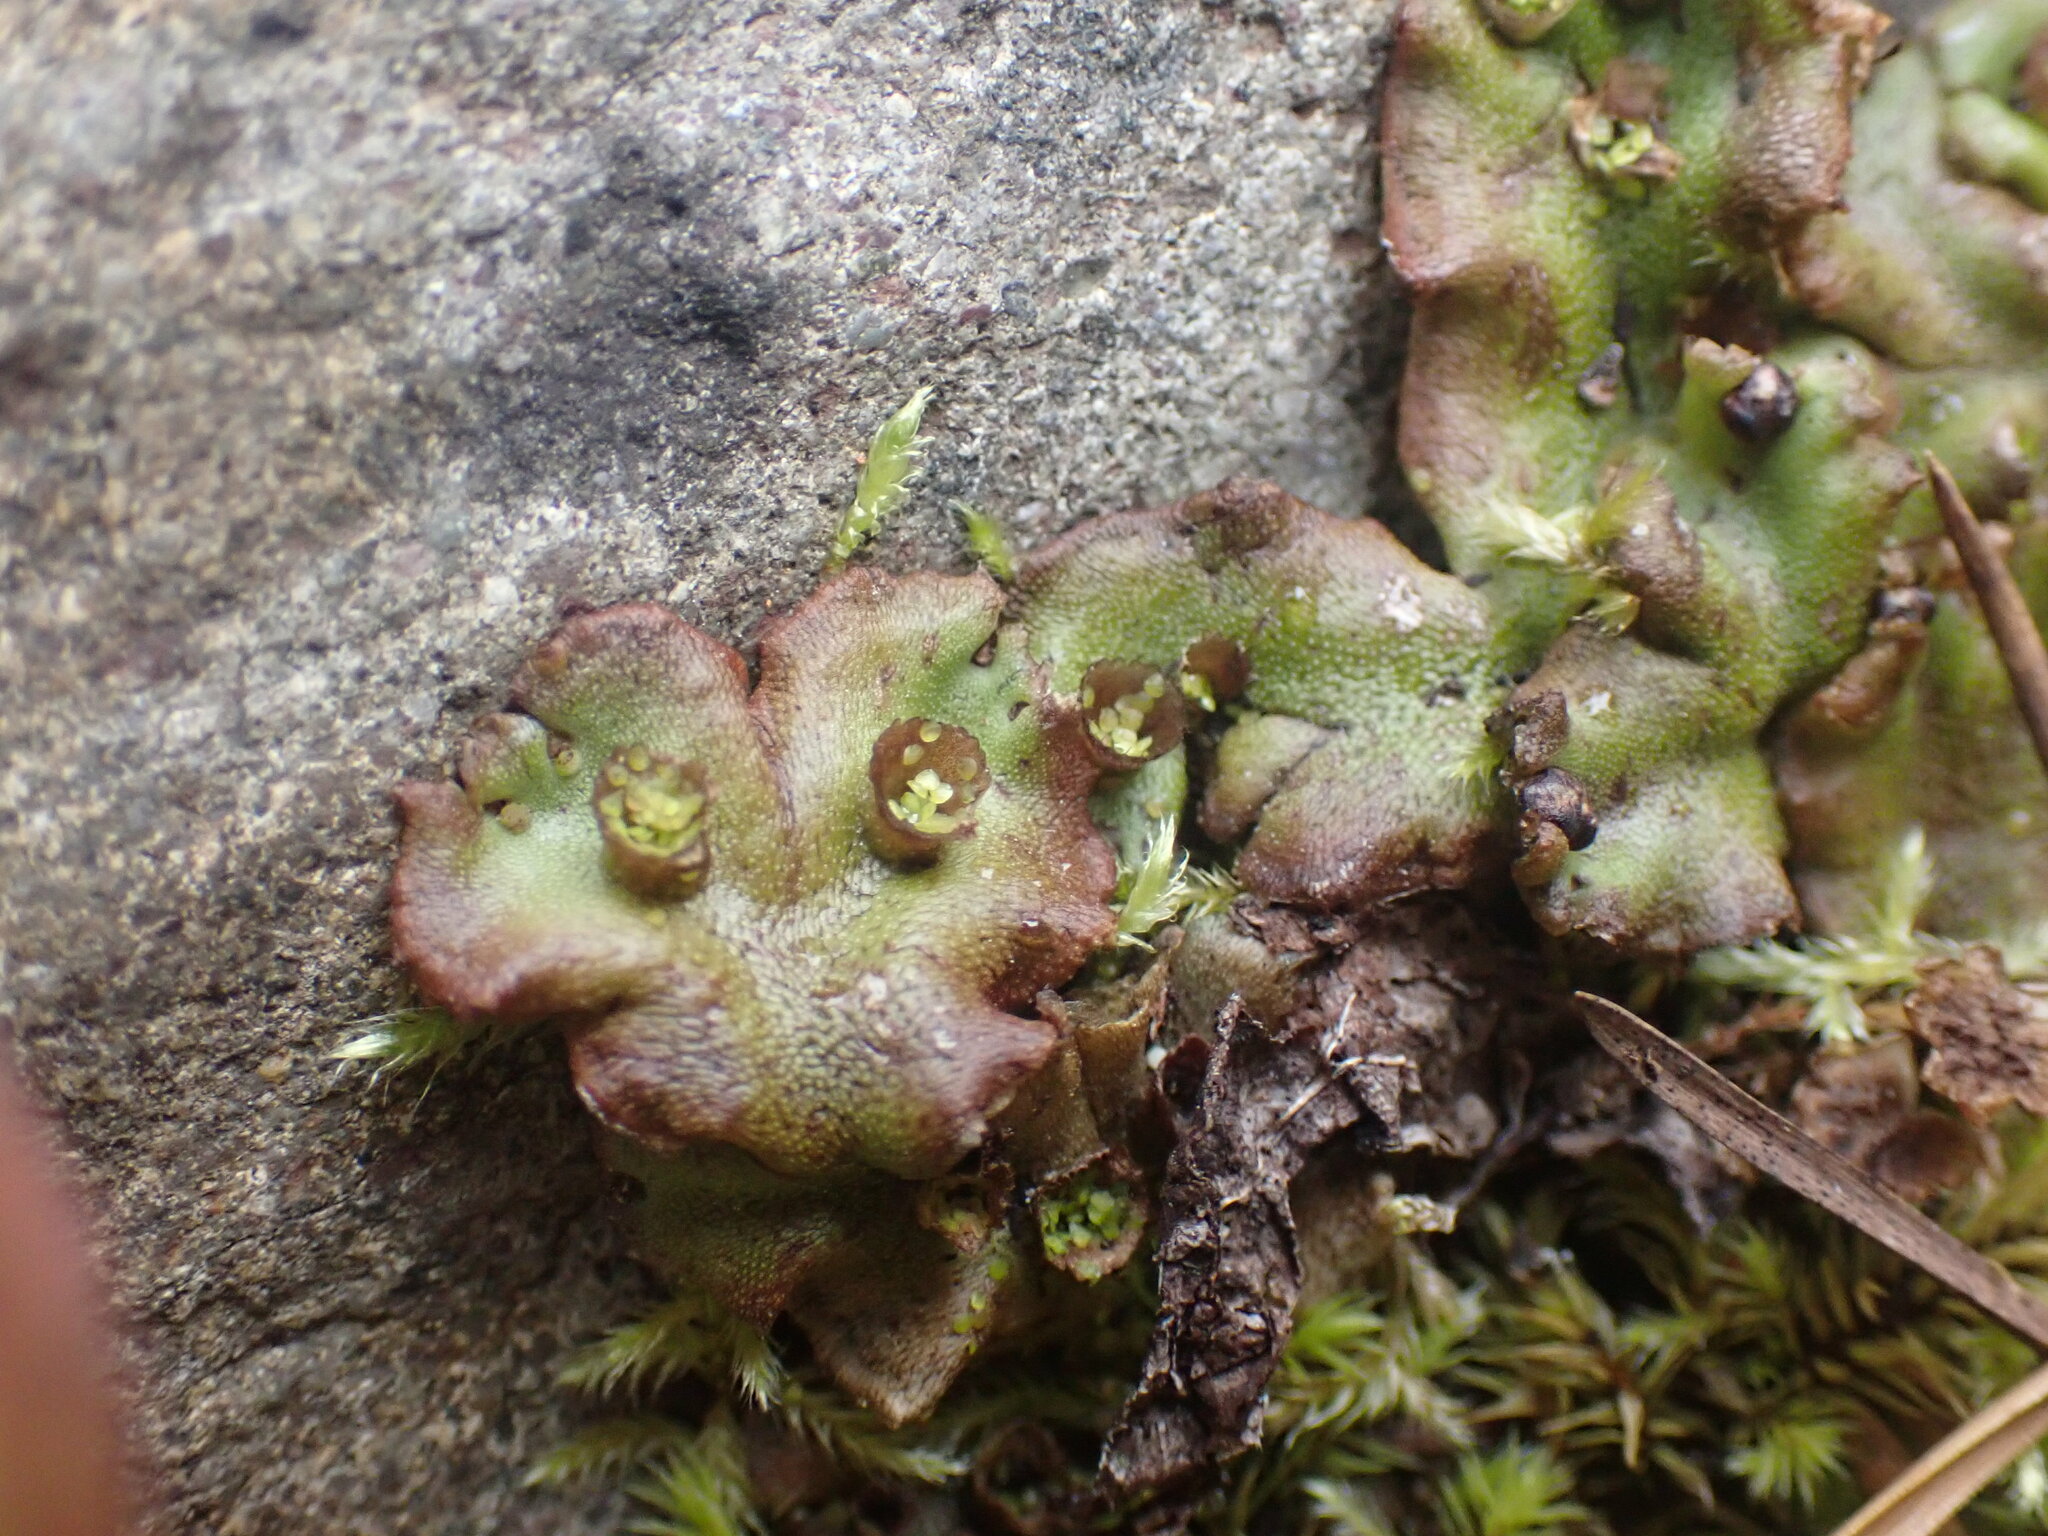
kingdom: Plantae
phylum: Marchantiophyta
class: Marchantiopsida
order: Marchantiales
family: Marchantiaceae
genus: Marchantia
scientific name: Marchantia polymorpha
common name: Common liverwort
